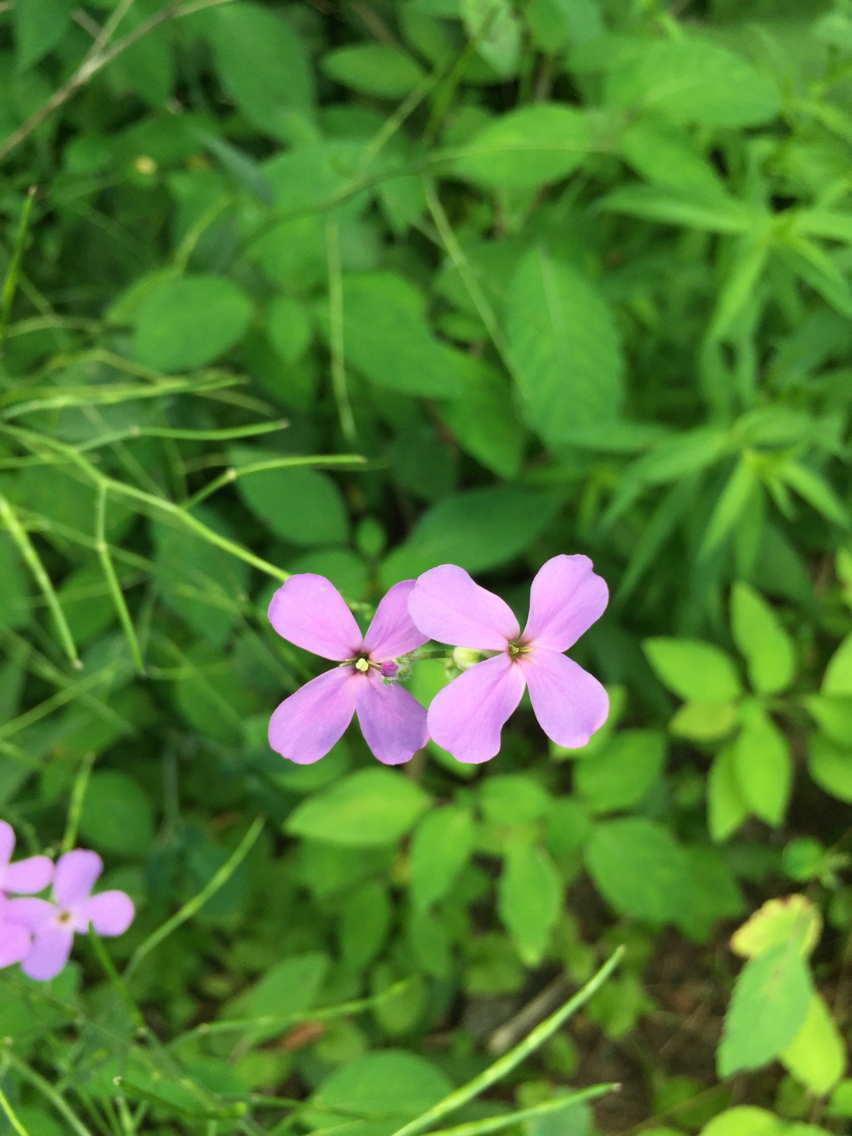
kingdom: Plantae
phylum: Tracheophyta
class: Magnoliopsida
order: Brassicales
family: Brassicaceae
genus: Hesperis
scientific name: Hesperis matronalis
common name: Dame's-violet
